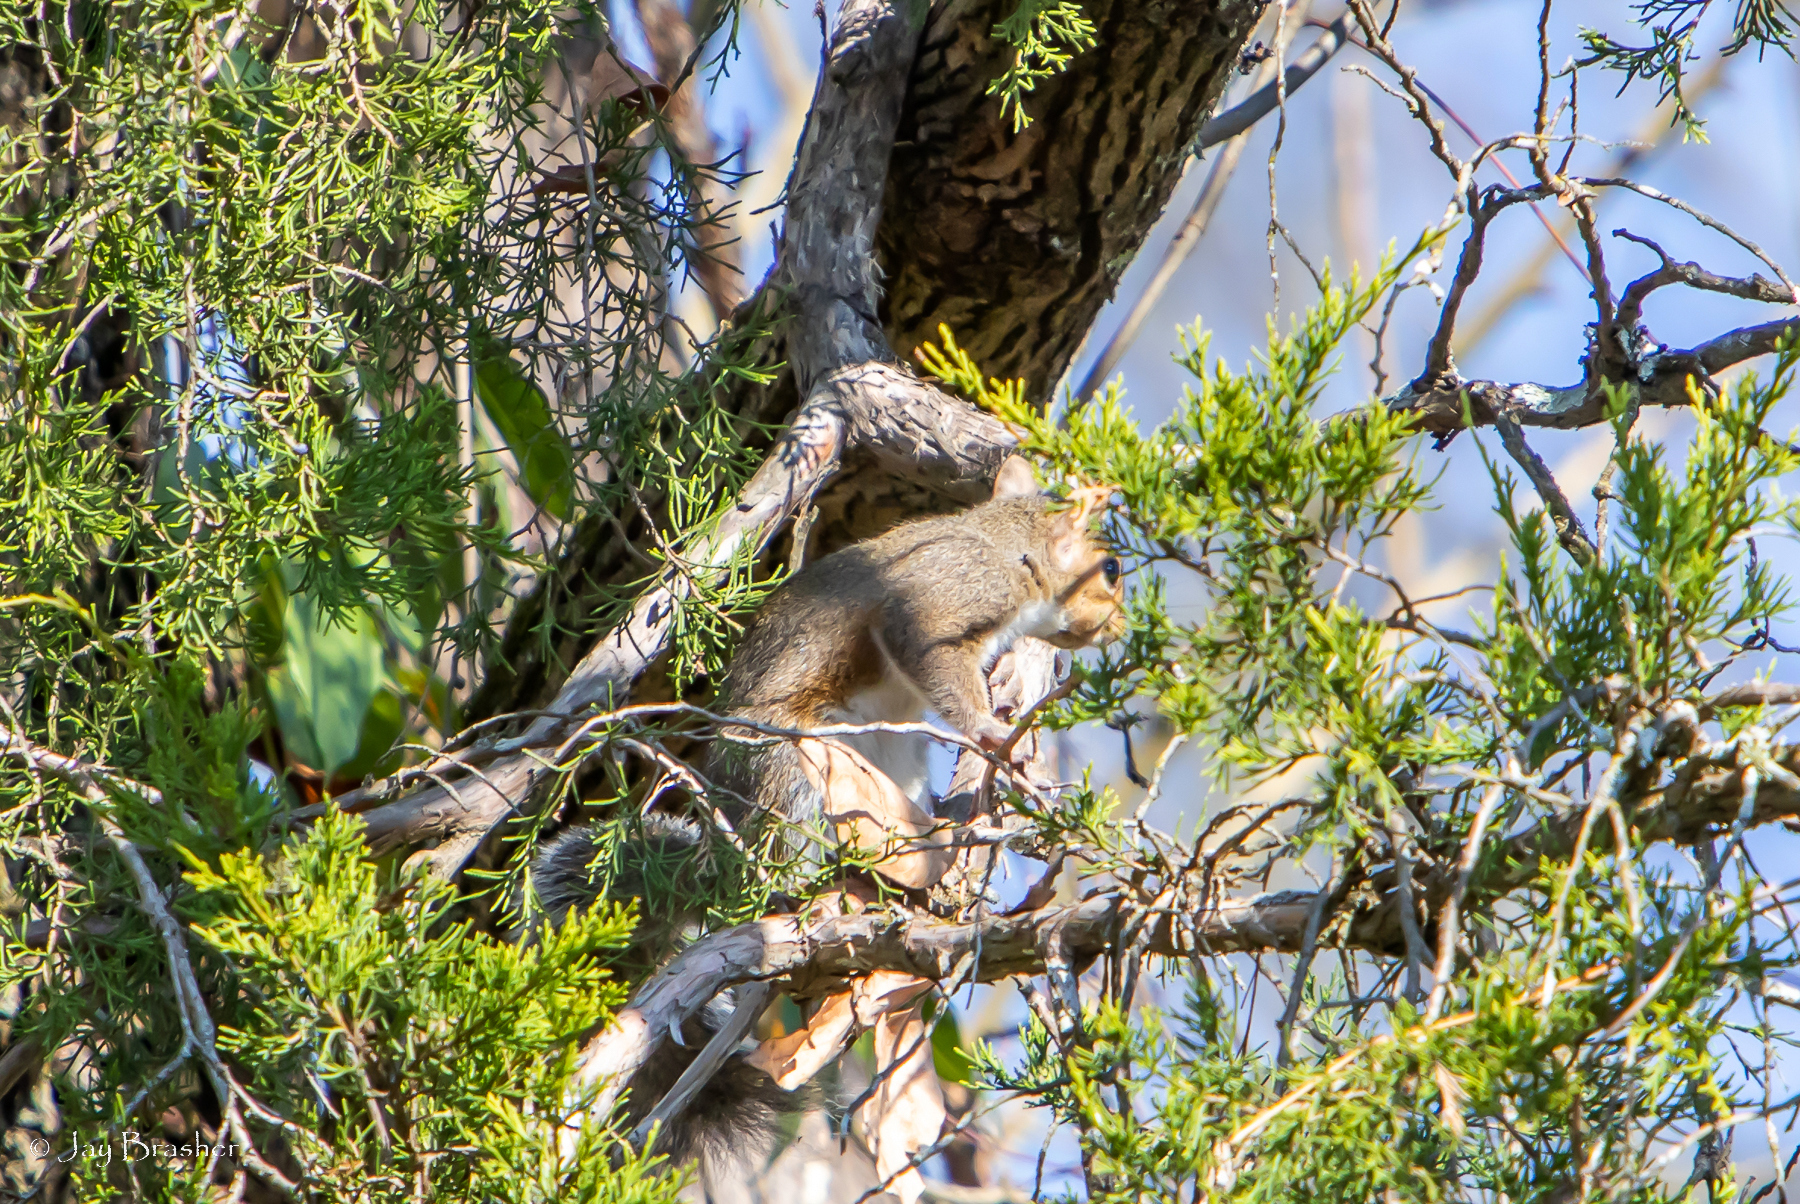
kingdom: Animalia
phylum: Chordata
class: Mammalia
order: Rodentia
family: Sciuridae
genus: Sciurus
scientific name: Sciurus carolinensis
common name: Eastern gray squirrel
